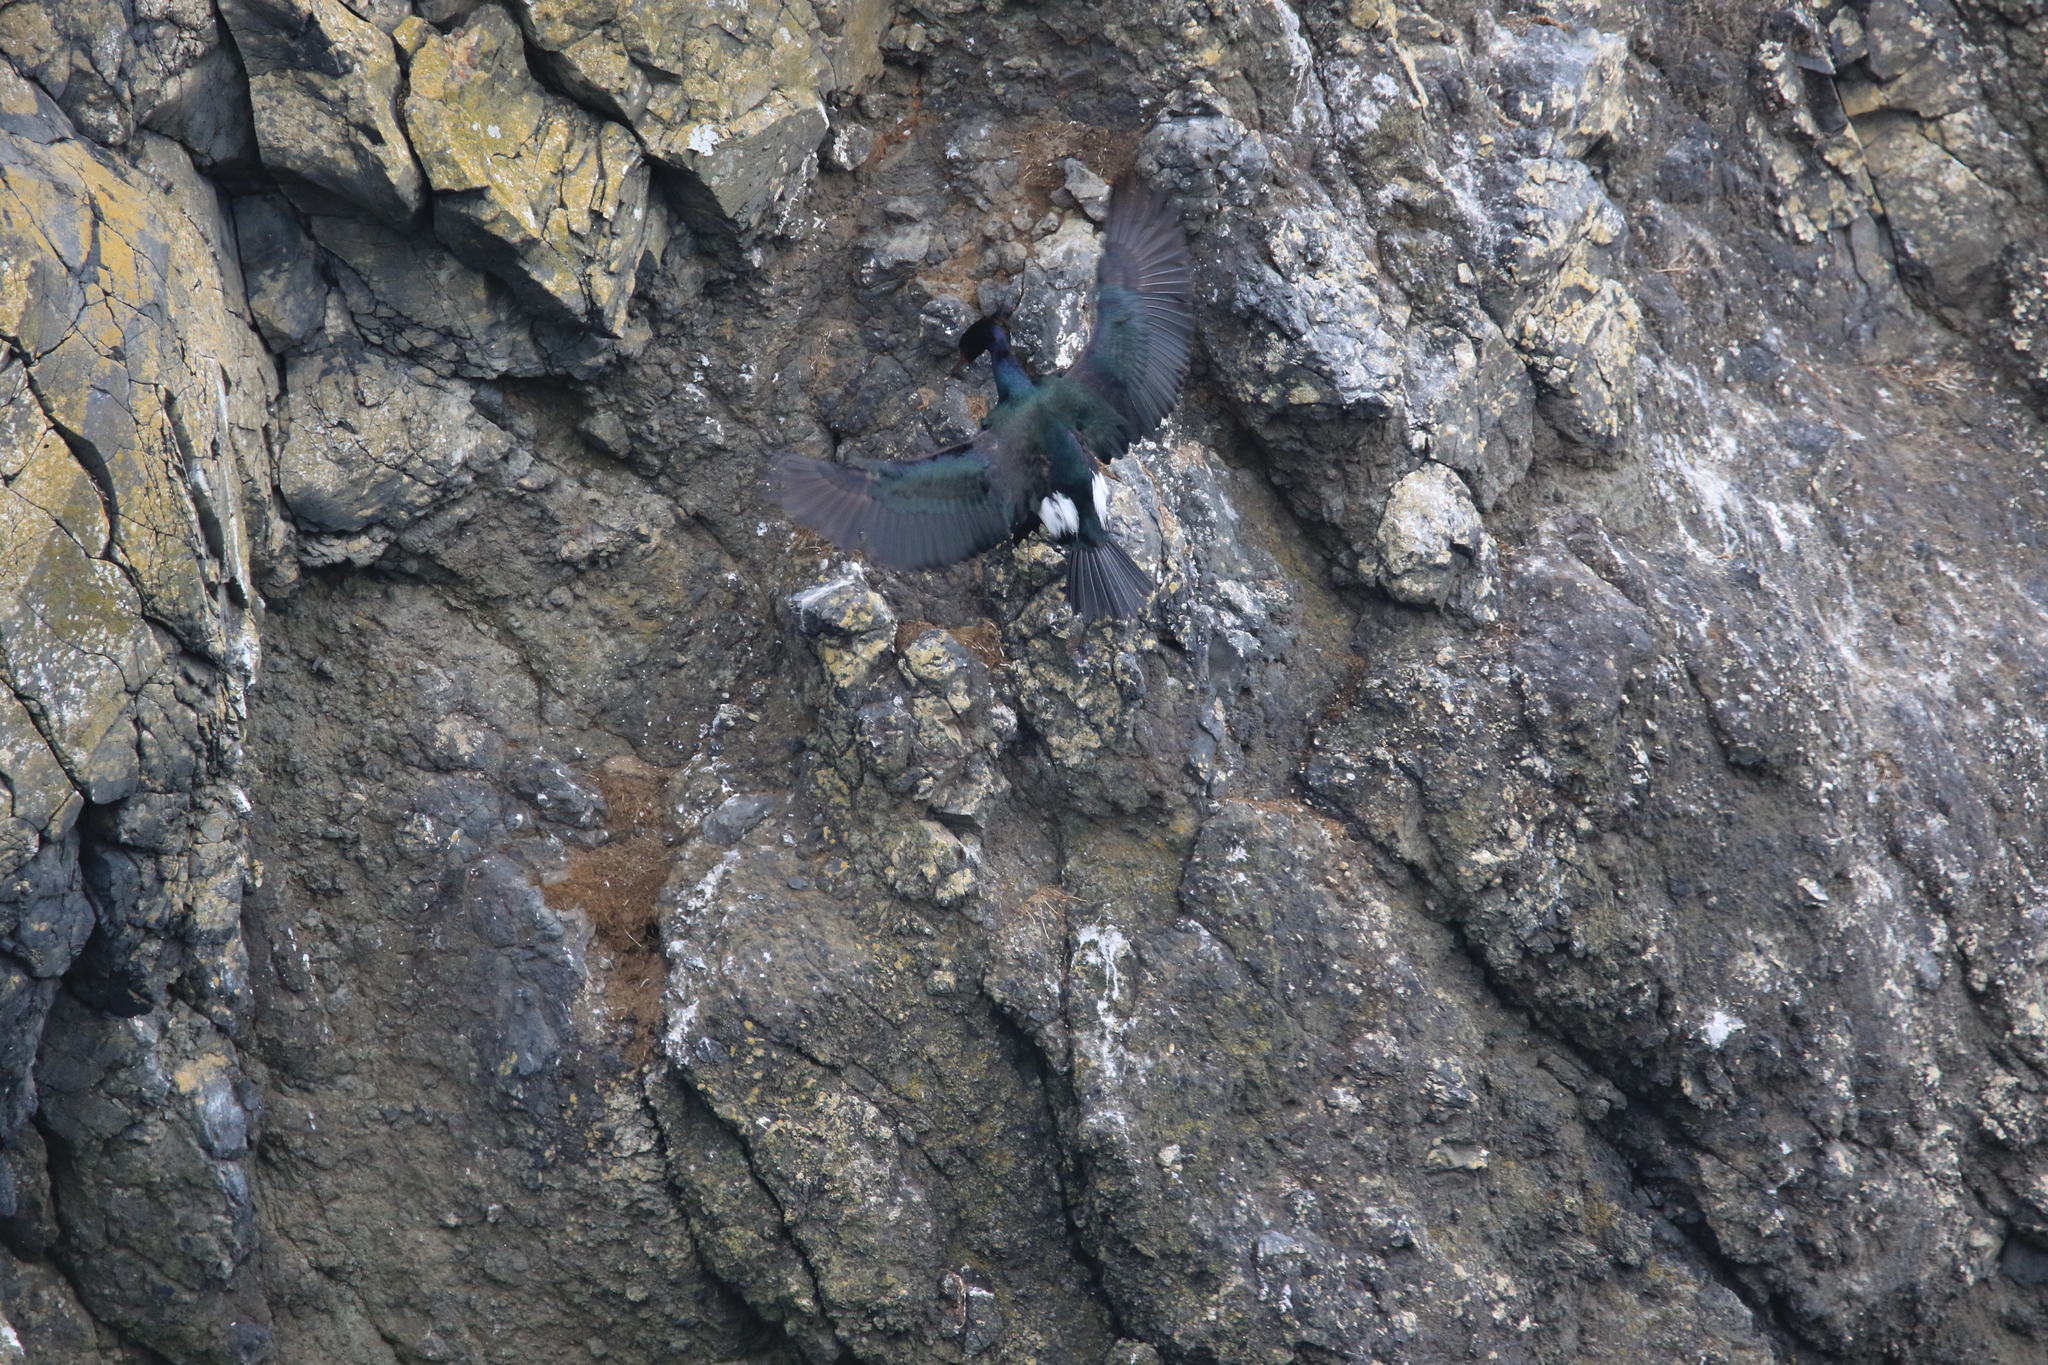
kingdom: Animalia
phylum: Chordata
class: Aves
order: Suliformes
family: Phalacrocoracidae
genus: Phalacrocorax
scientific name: Phalacrocorax pelagicus
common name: Pelagic cormorant
